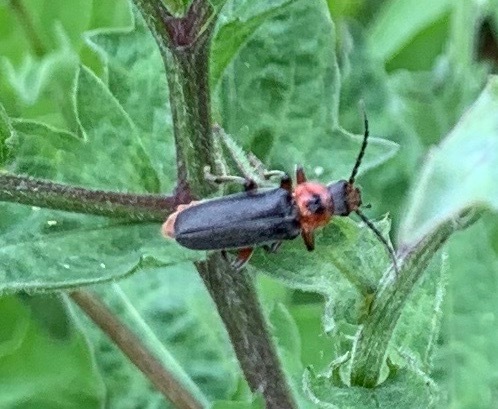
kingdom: Animalia
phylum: Arthropoda
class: Insecta
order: Coleoptera
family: Cantharidae
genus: Cantharis
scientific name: Cantharis rustica
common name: Soldier beetle
